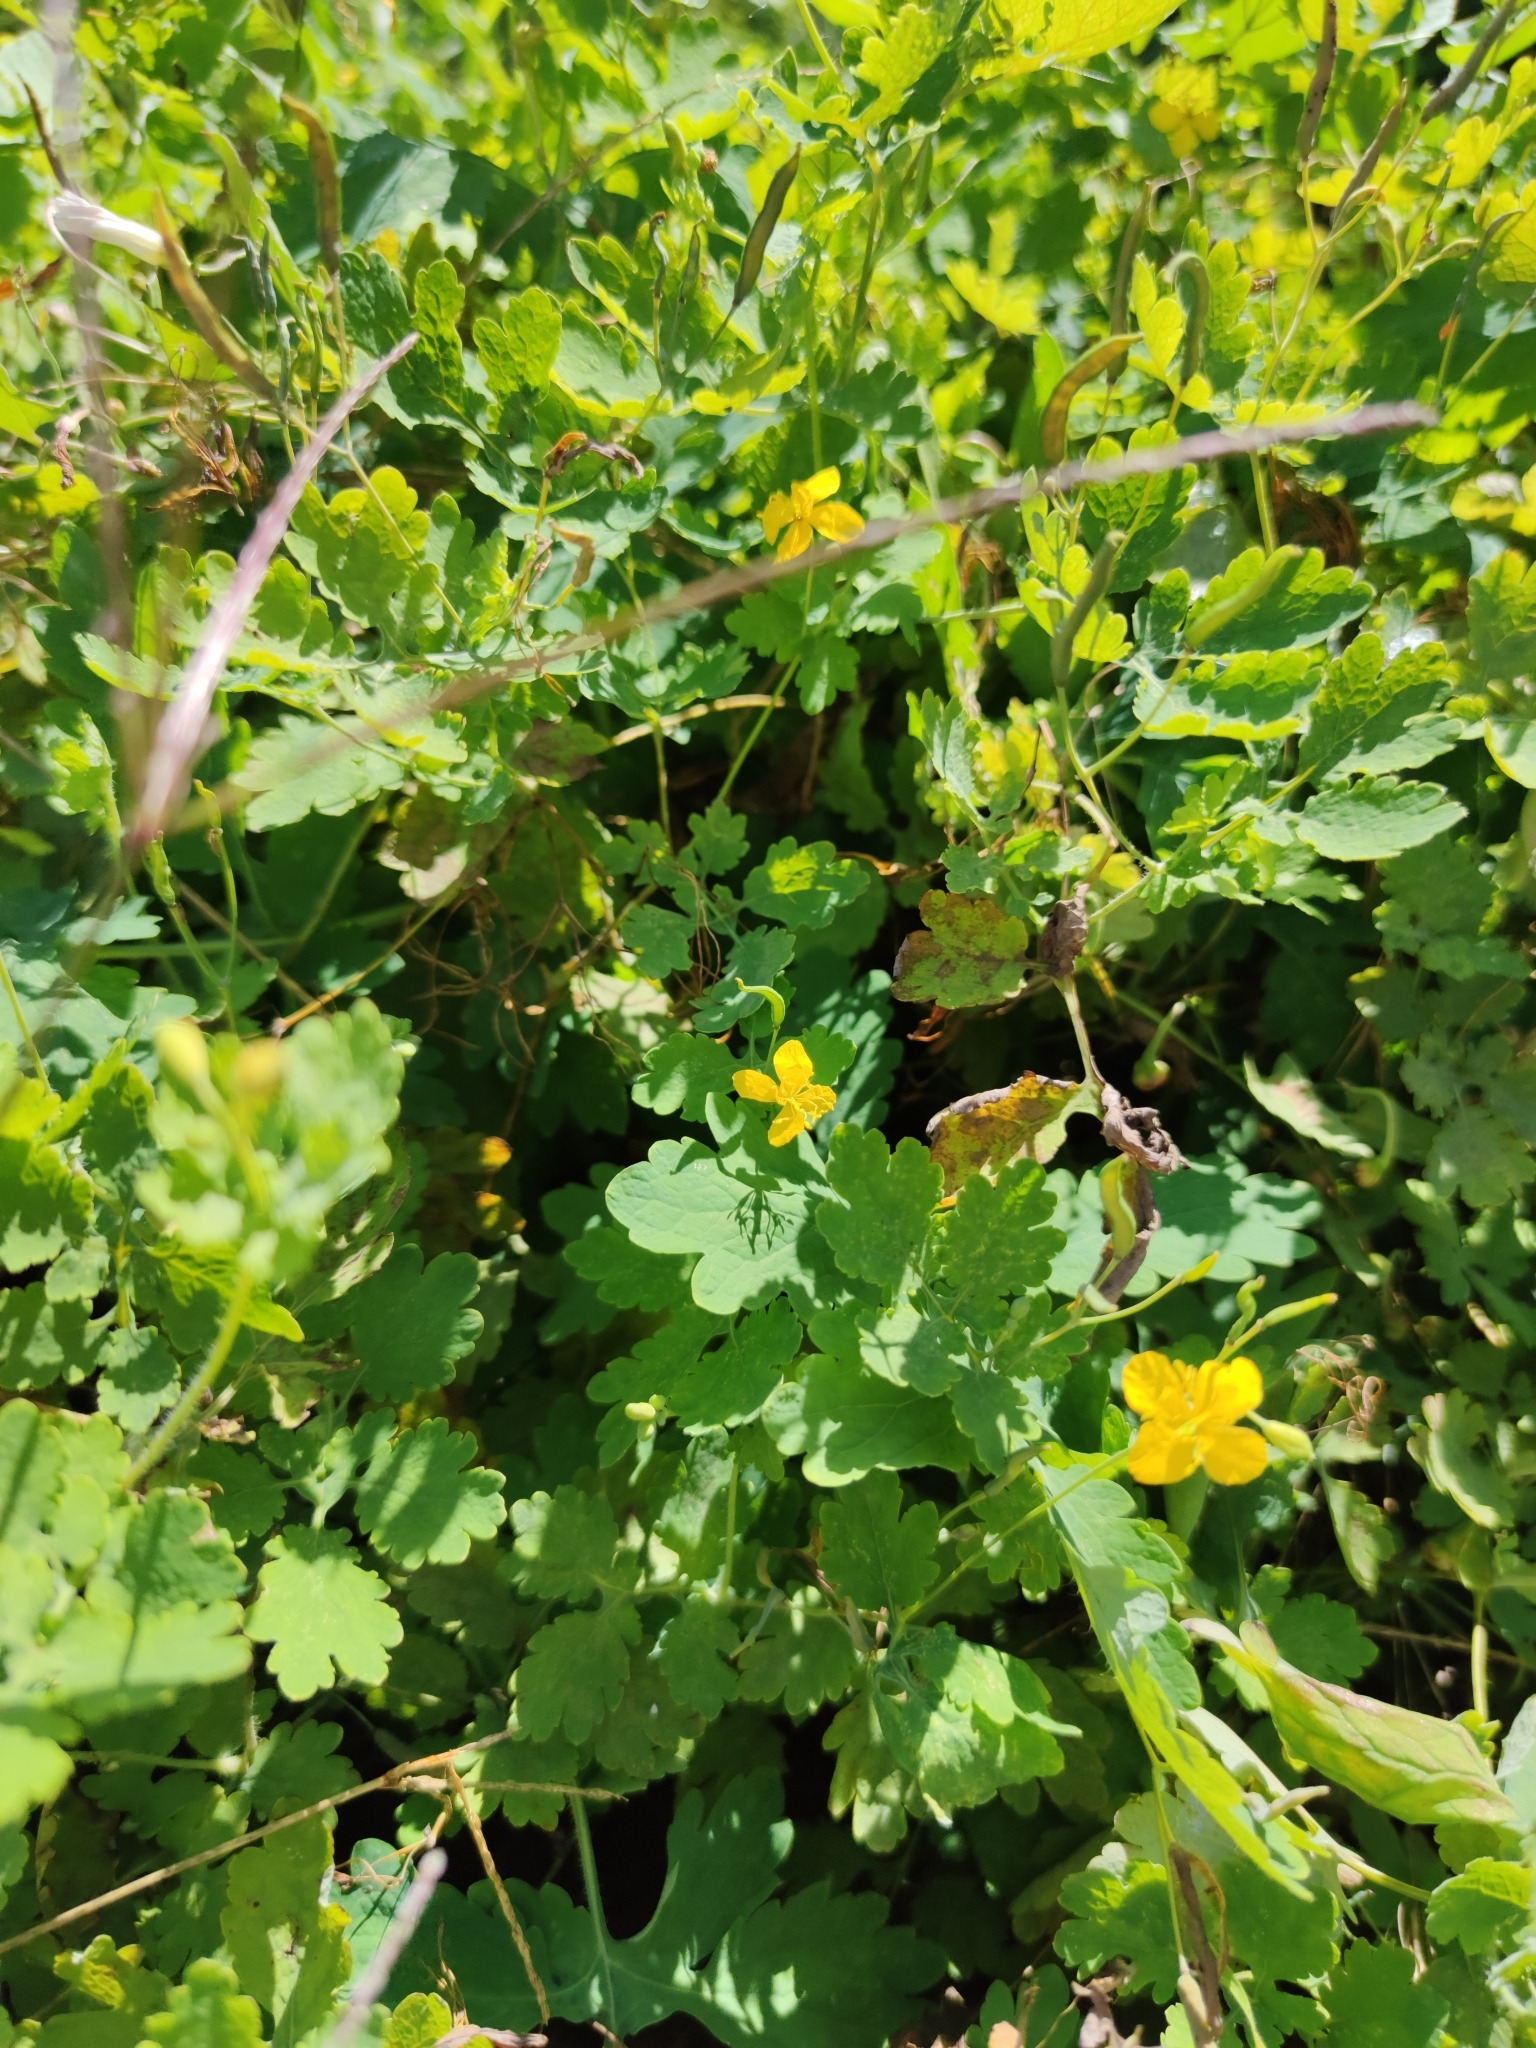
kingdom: Plantae
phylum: Tracheophyta
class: Magnoliopsida
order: Ranunculales
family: Papaveraceae
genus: Chelidonium
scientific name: Chelidonium majus
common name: Greater celandine
